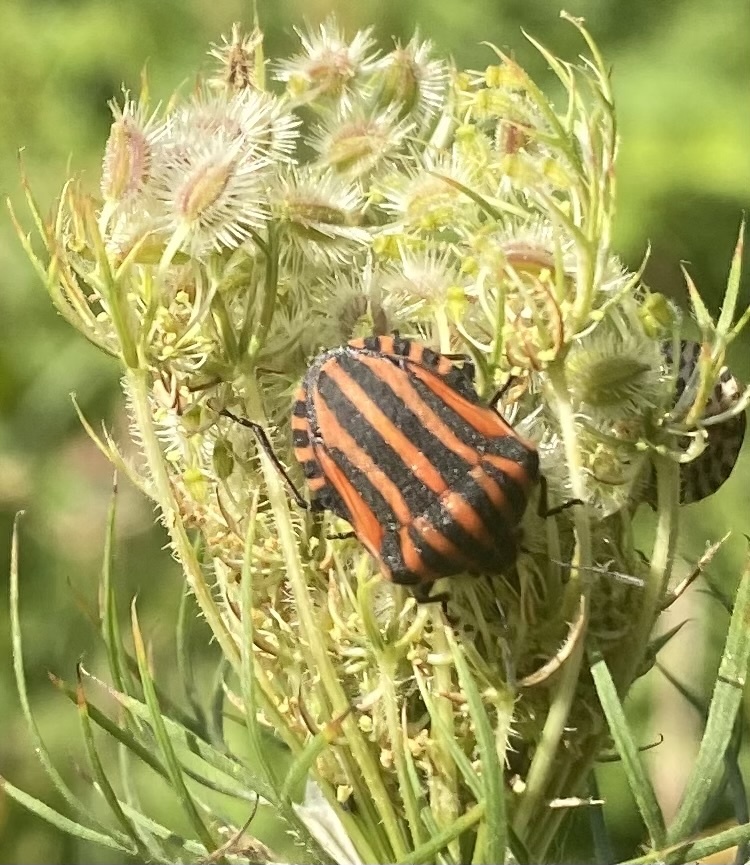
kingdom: Animalia
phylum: Arthropoda
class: Insecta
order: Hemiptera
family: Pentatomidae
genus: Graphosoma
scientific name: Graphosoma italicum
